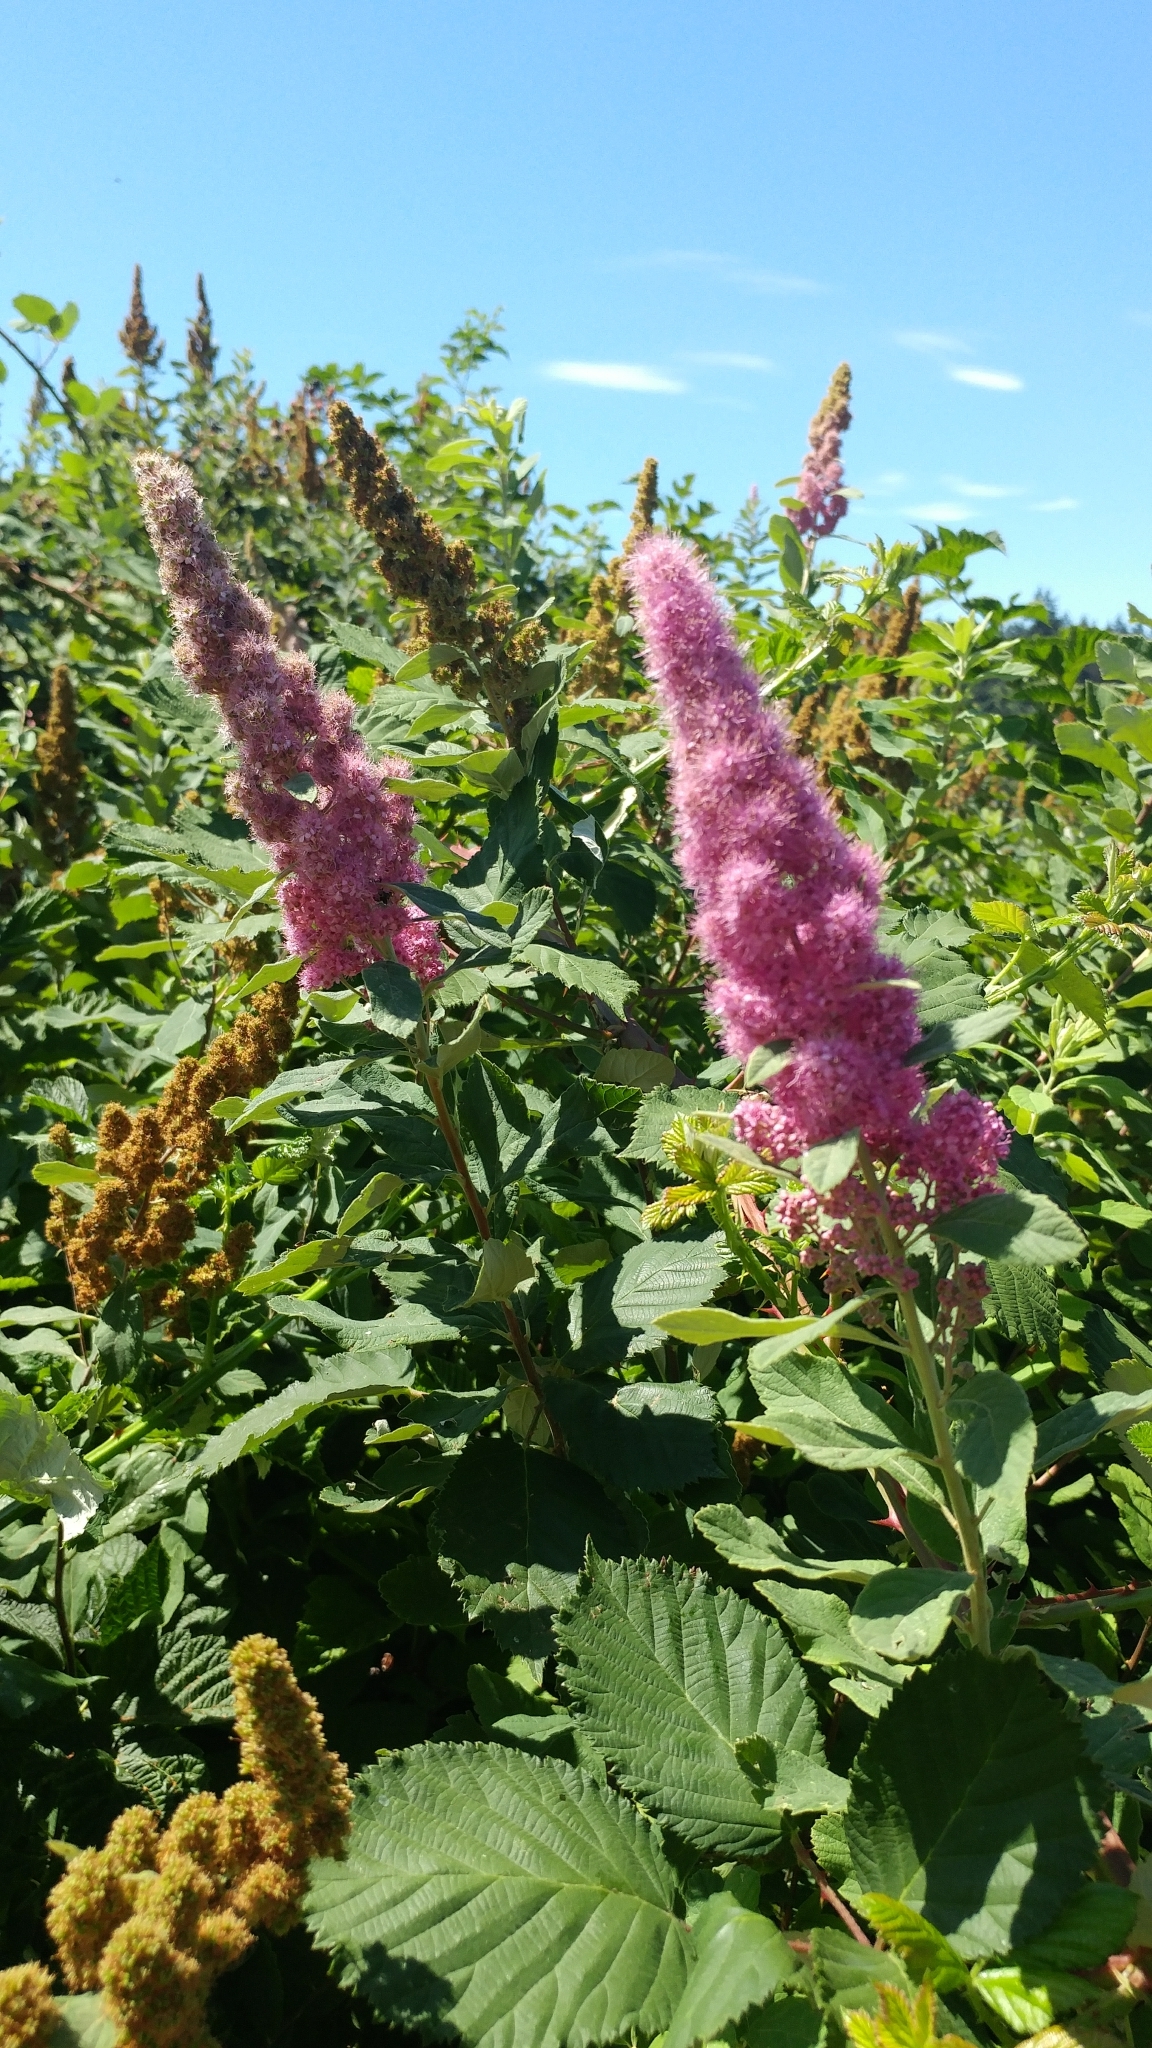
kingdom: Plantae
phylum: Tracheophyta
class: Magnoliopsida
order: Rosales
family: Rosaceae
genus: Spiraea
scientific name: Spiraea douglasii
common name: Steeplebush
